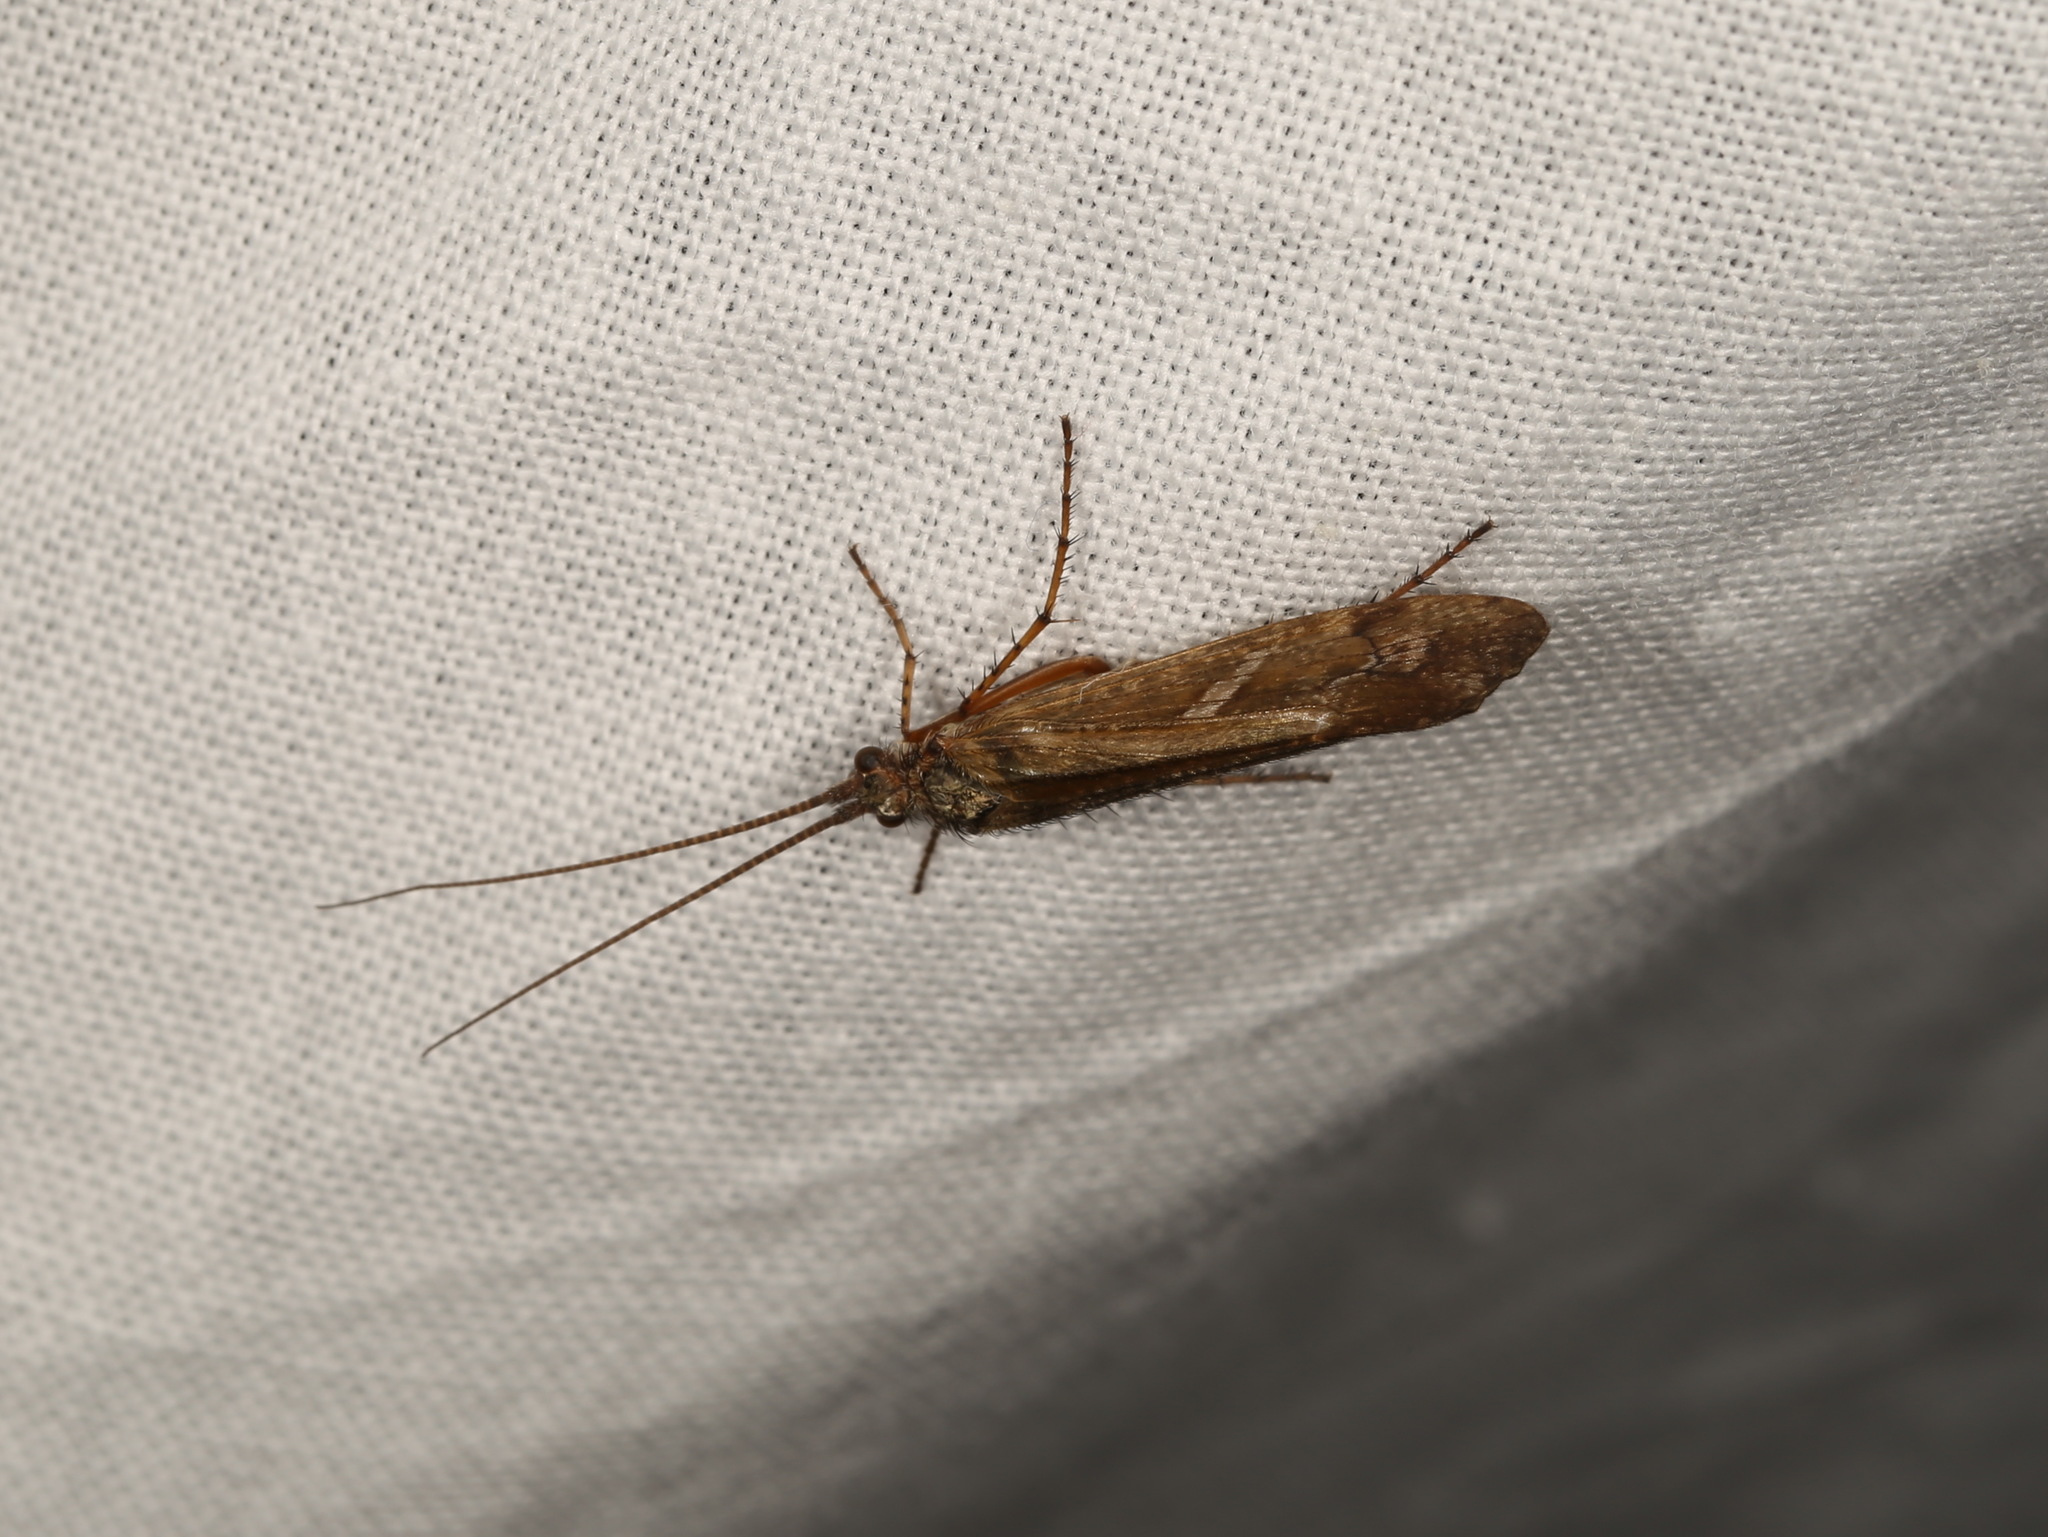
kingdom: Animalia
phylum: Arthropoda
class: Insecta
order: Trichoptera
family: Limnephilidae
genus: Limnephilus
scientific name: Limnephilus griseus
